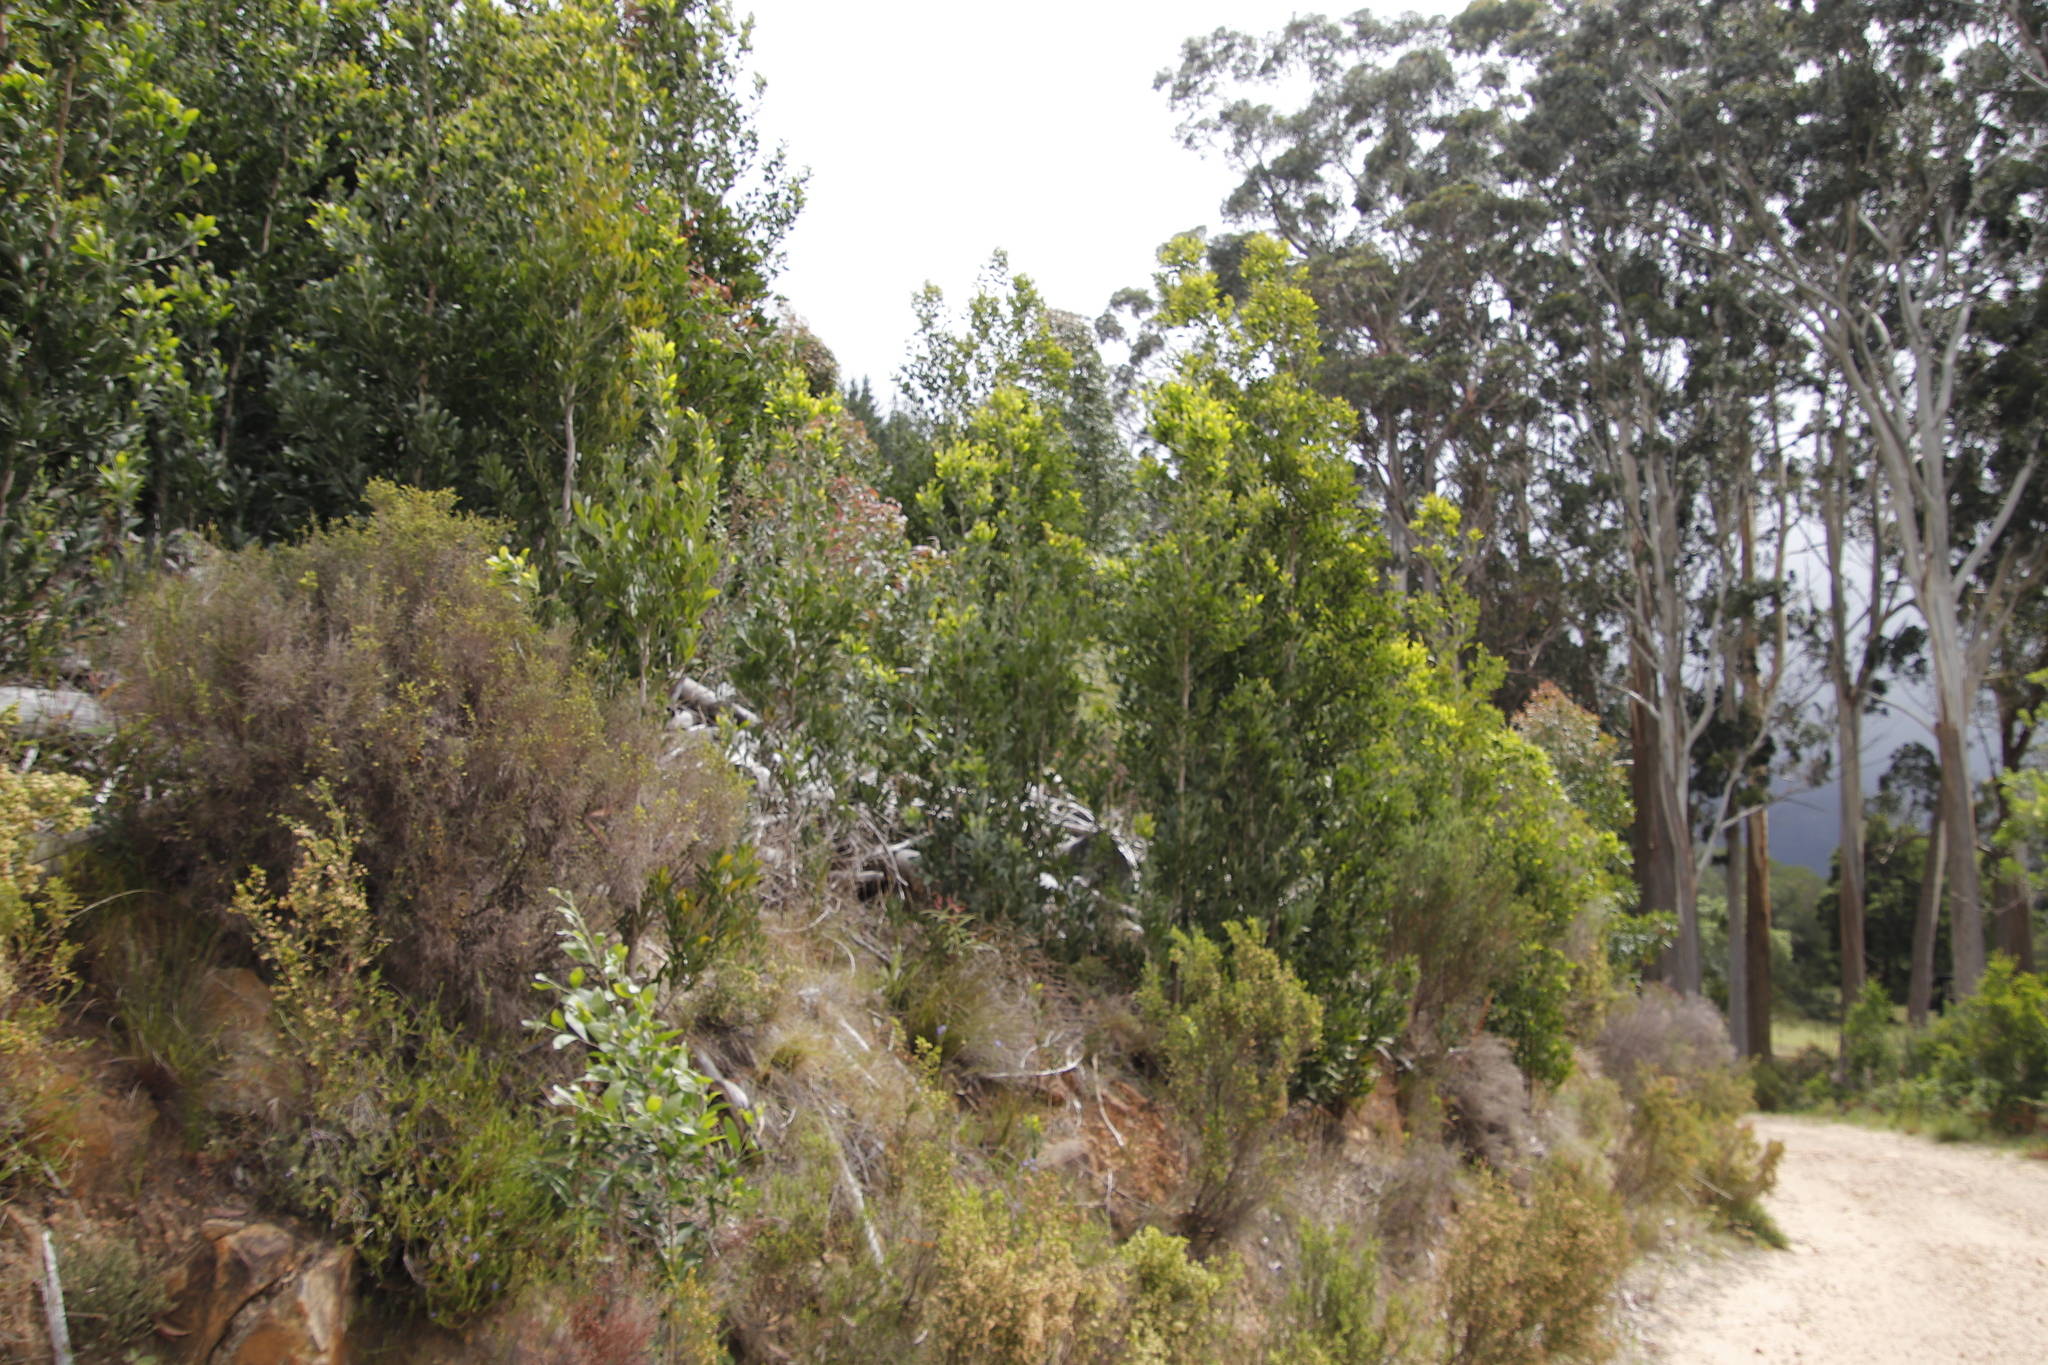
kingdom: Plantae
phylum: Tracheophyta
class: Magnoliopsida
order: Fabales
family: Fabaceae
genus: Acacia
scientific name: Acacia melanoxylon
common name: Blackwood
